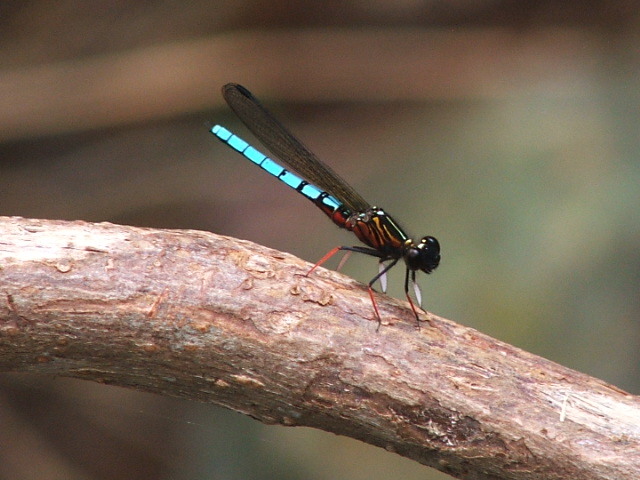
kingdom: Animalia
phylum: Arthropoda
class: Insecta
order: Odonata
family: Chlorocyphidae
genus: Platycypha
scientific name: Platycypha caligata
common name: Dancing jewel
